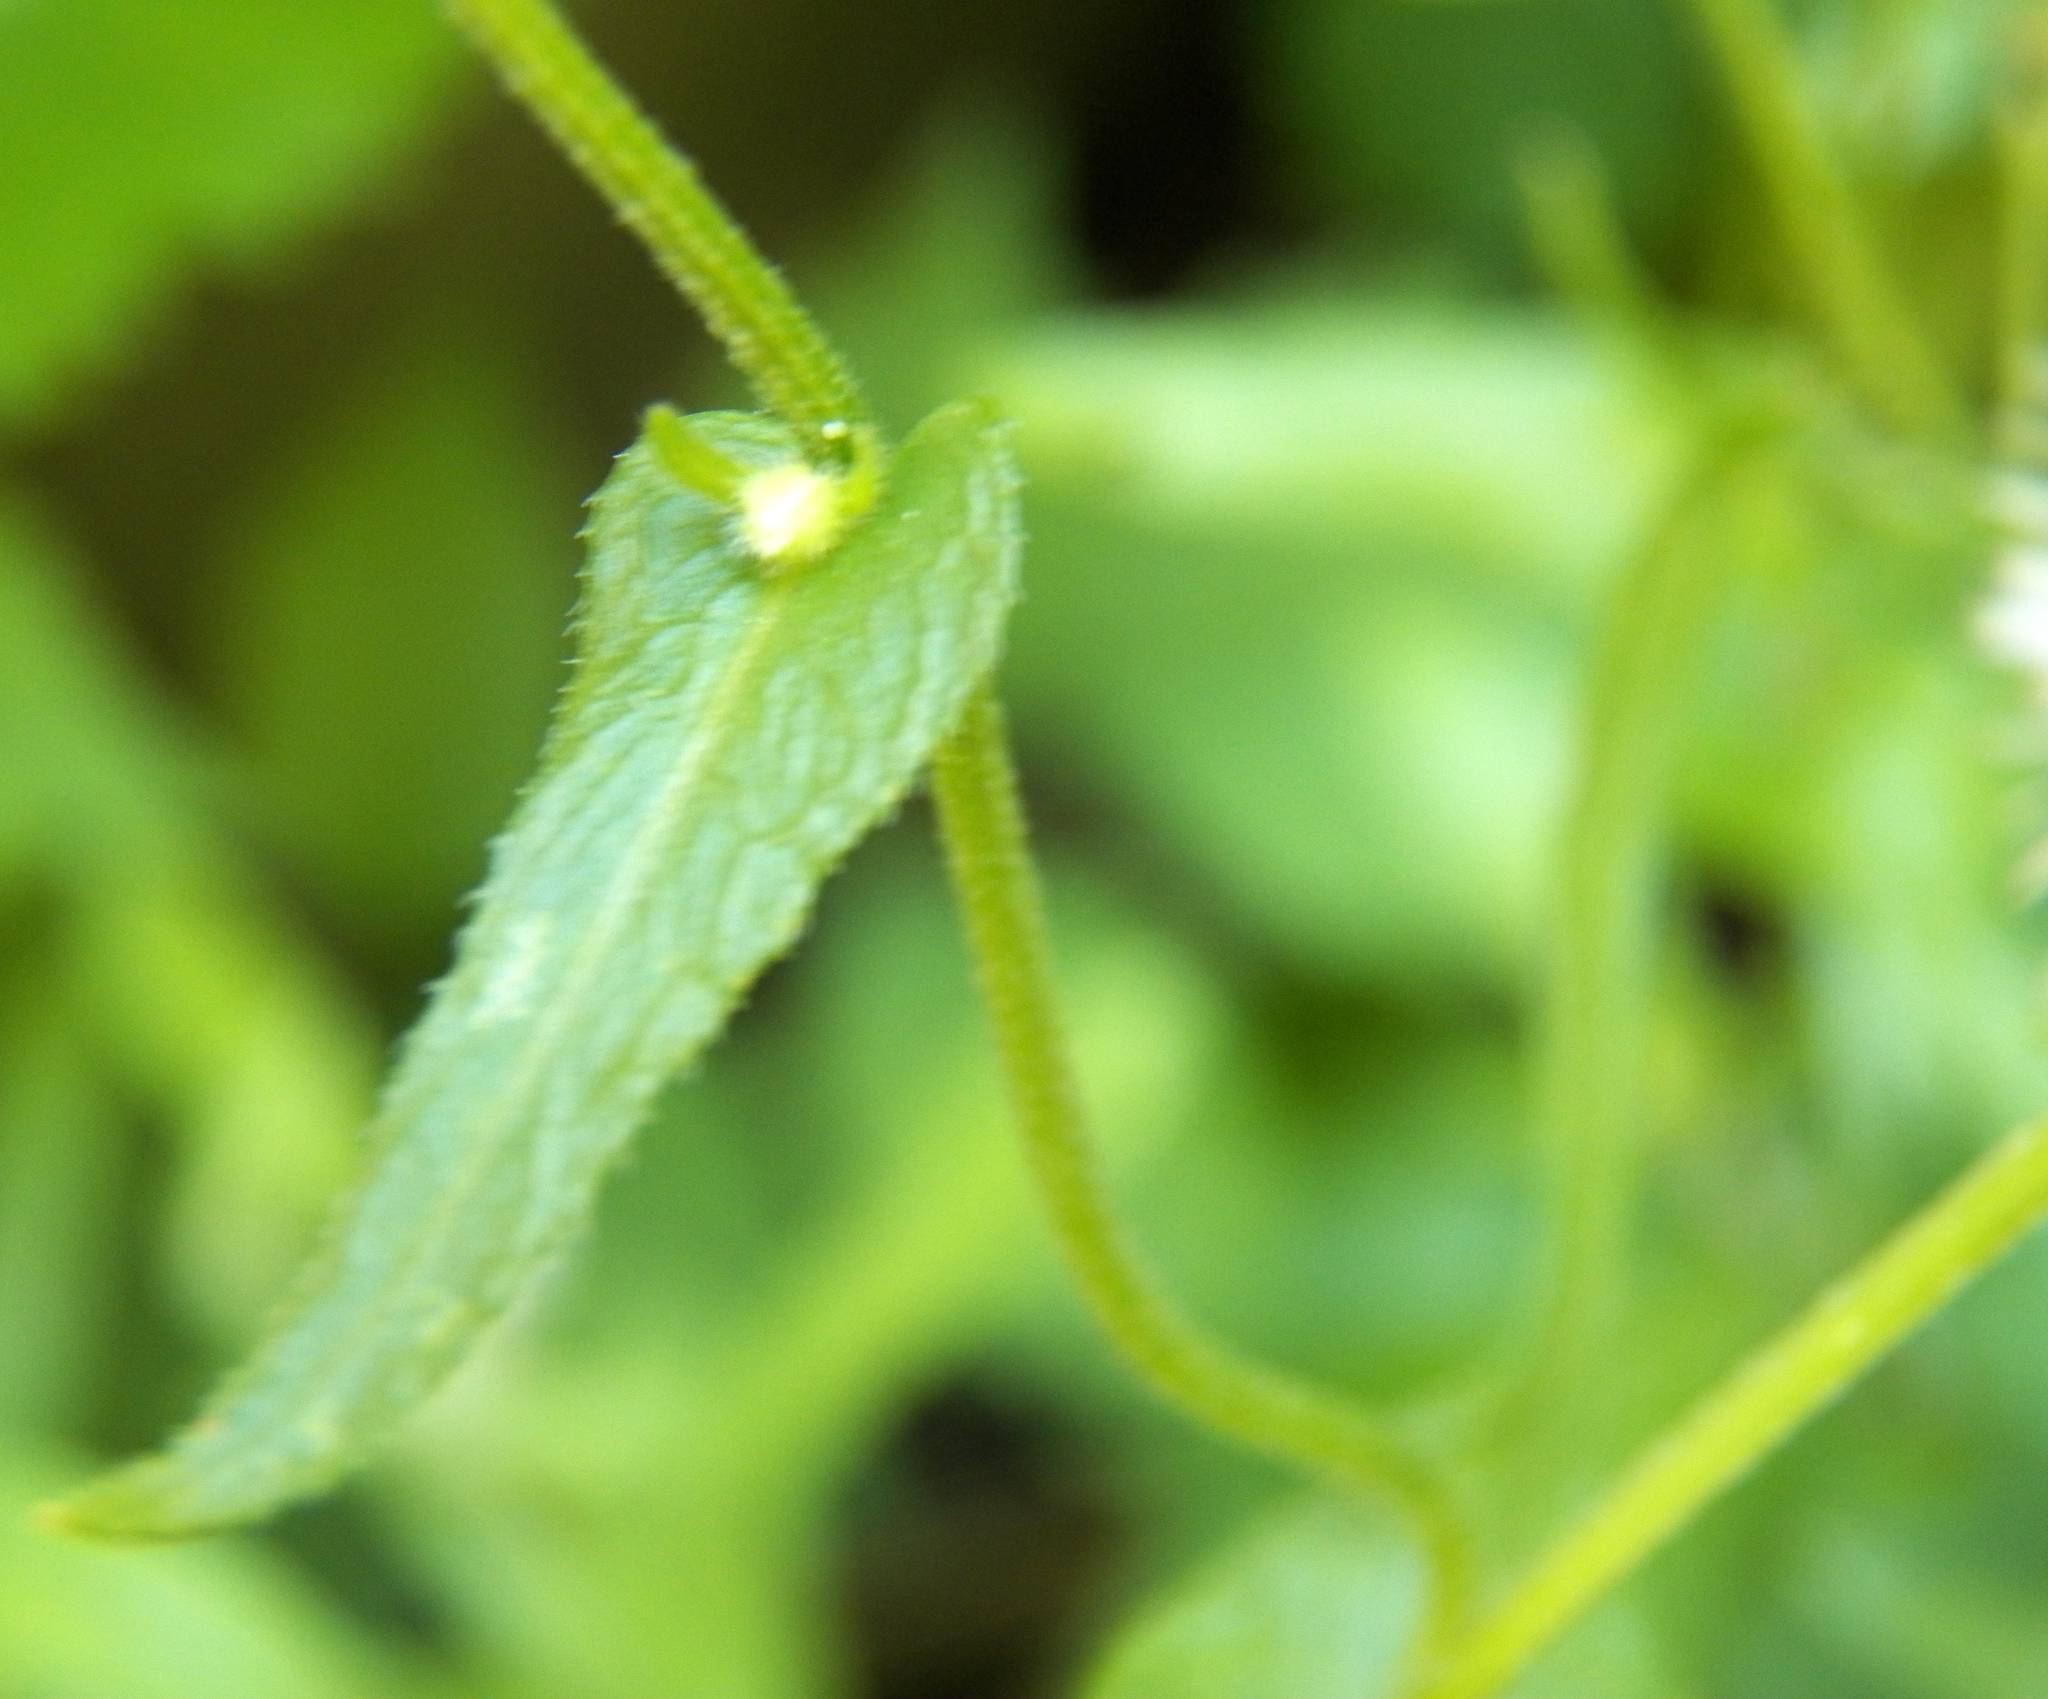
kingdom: Plantae
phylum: Tracheophyta
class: Magnoliopsida
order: Asterales
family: Asteraceae
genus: Erigeron
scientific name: Erigeron philadelphicus
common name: Robin's-plantain
